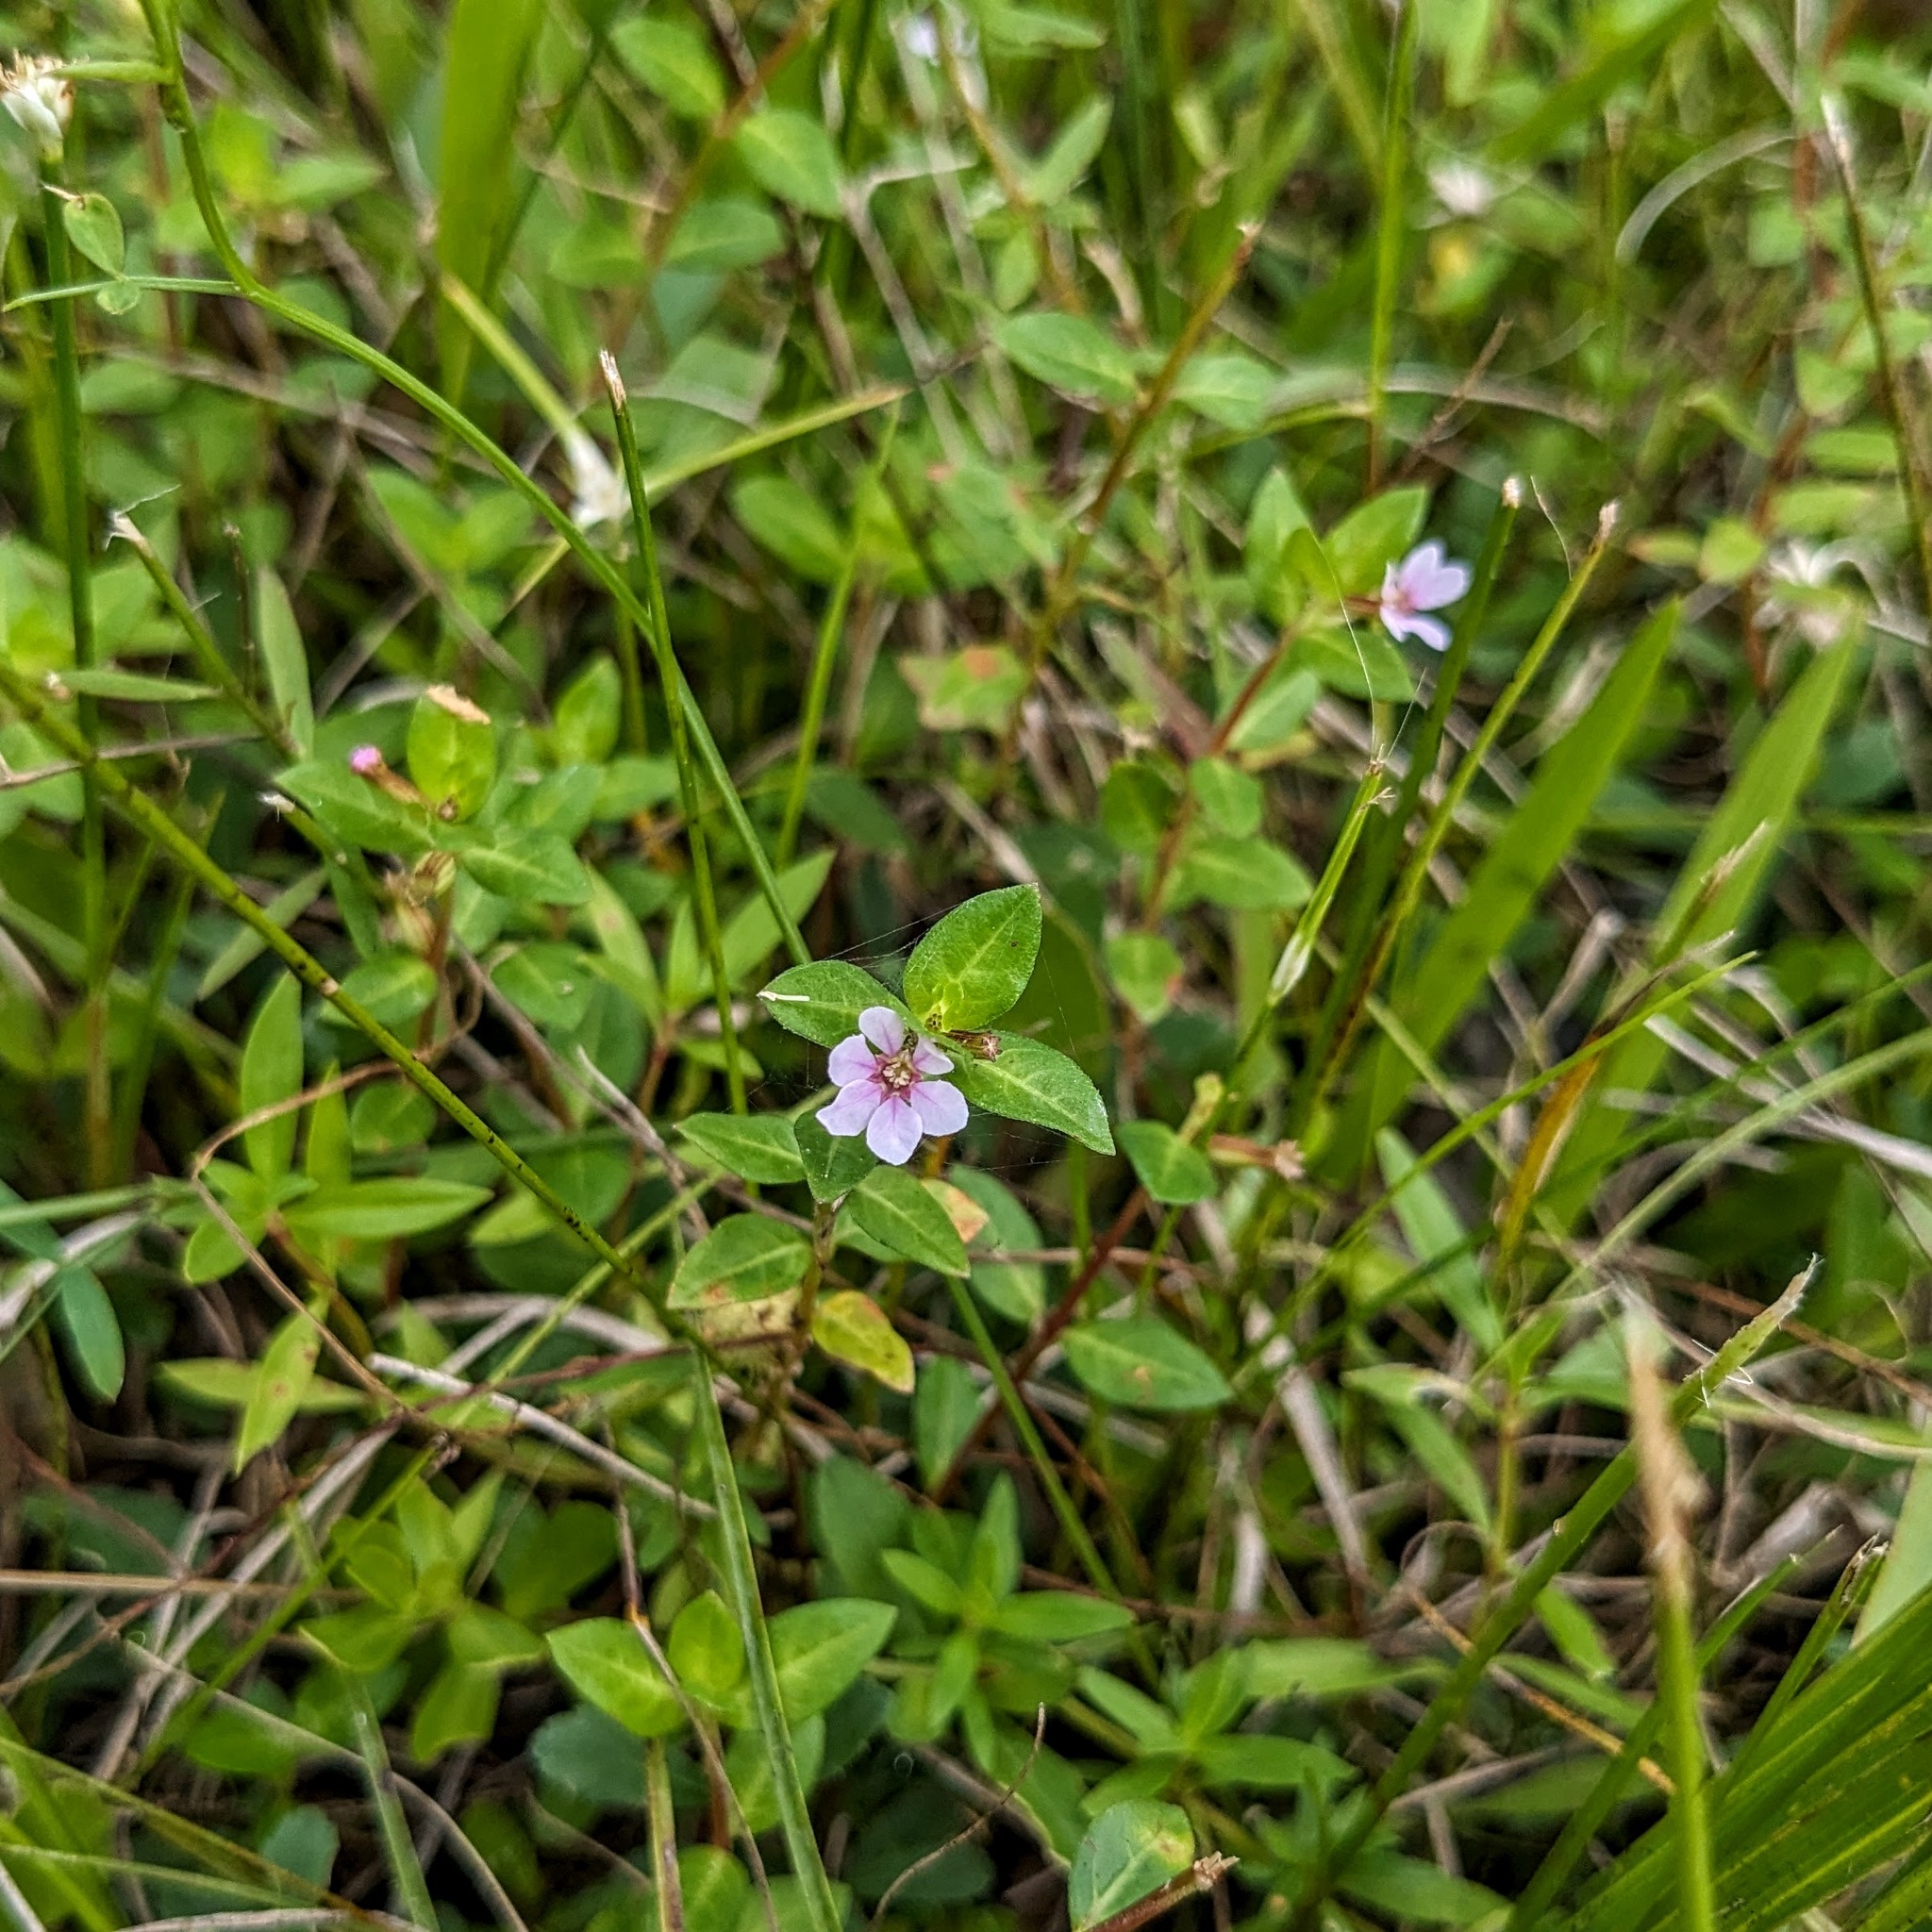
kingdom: Plantae
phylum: Tracheophyta
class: Magnoliopsida
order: Myrtales
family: Lythraceae
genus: Cuphea
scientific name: Cuphea strigulosa
